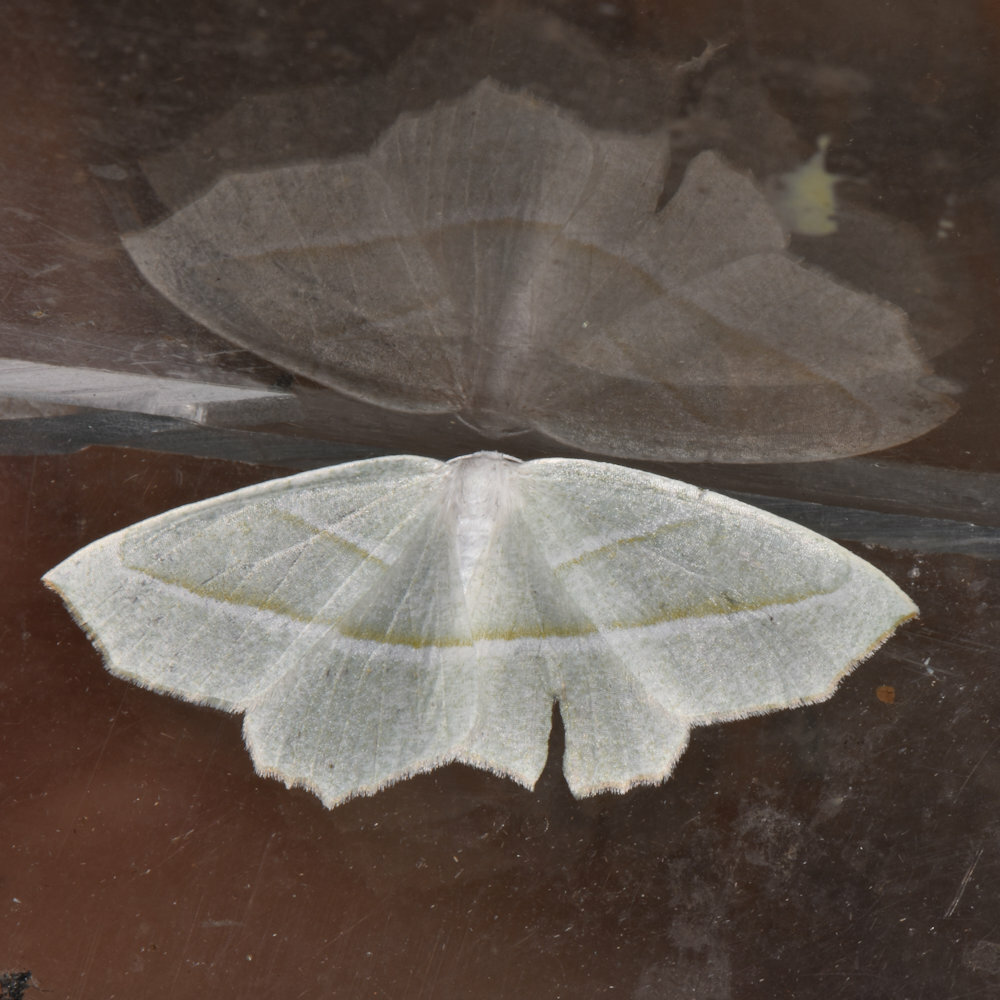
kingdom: Animalia
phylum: Arthropoda
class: Insecta
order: Lepidoptera
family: Geometridae
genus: Campaea
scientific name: Campaea perlata
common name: Fringed looper
